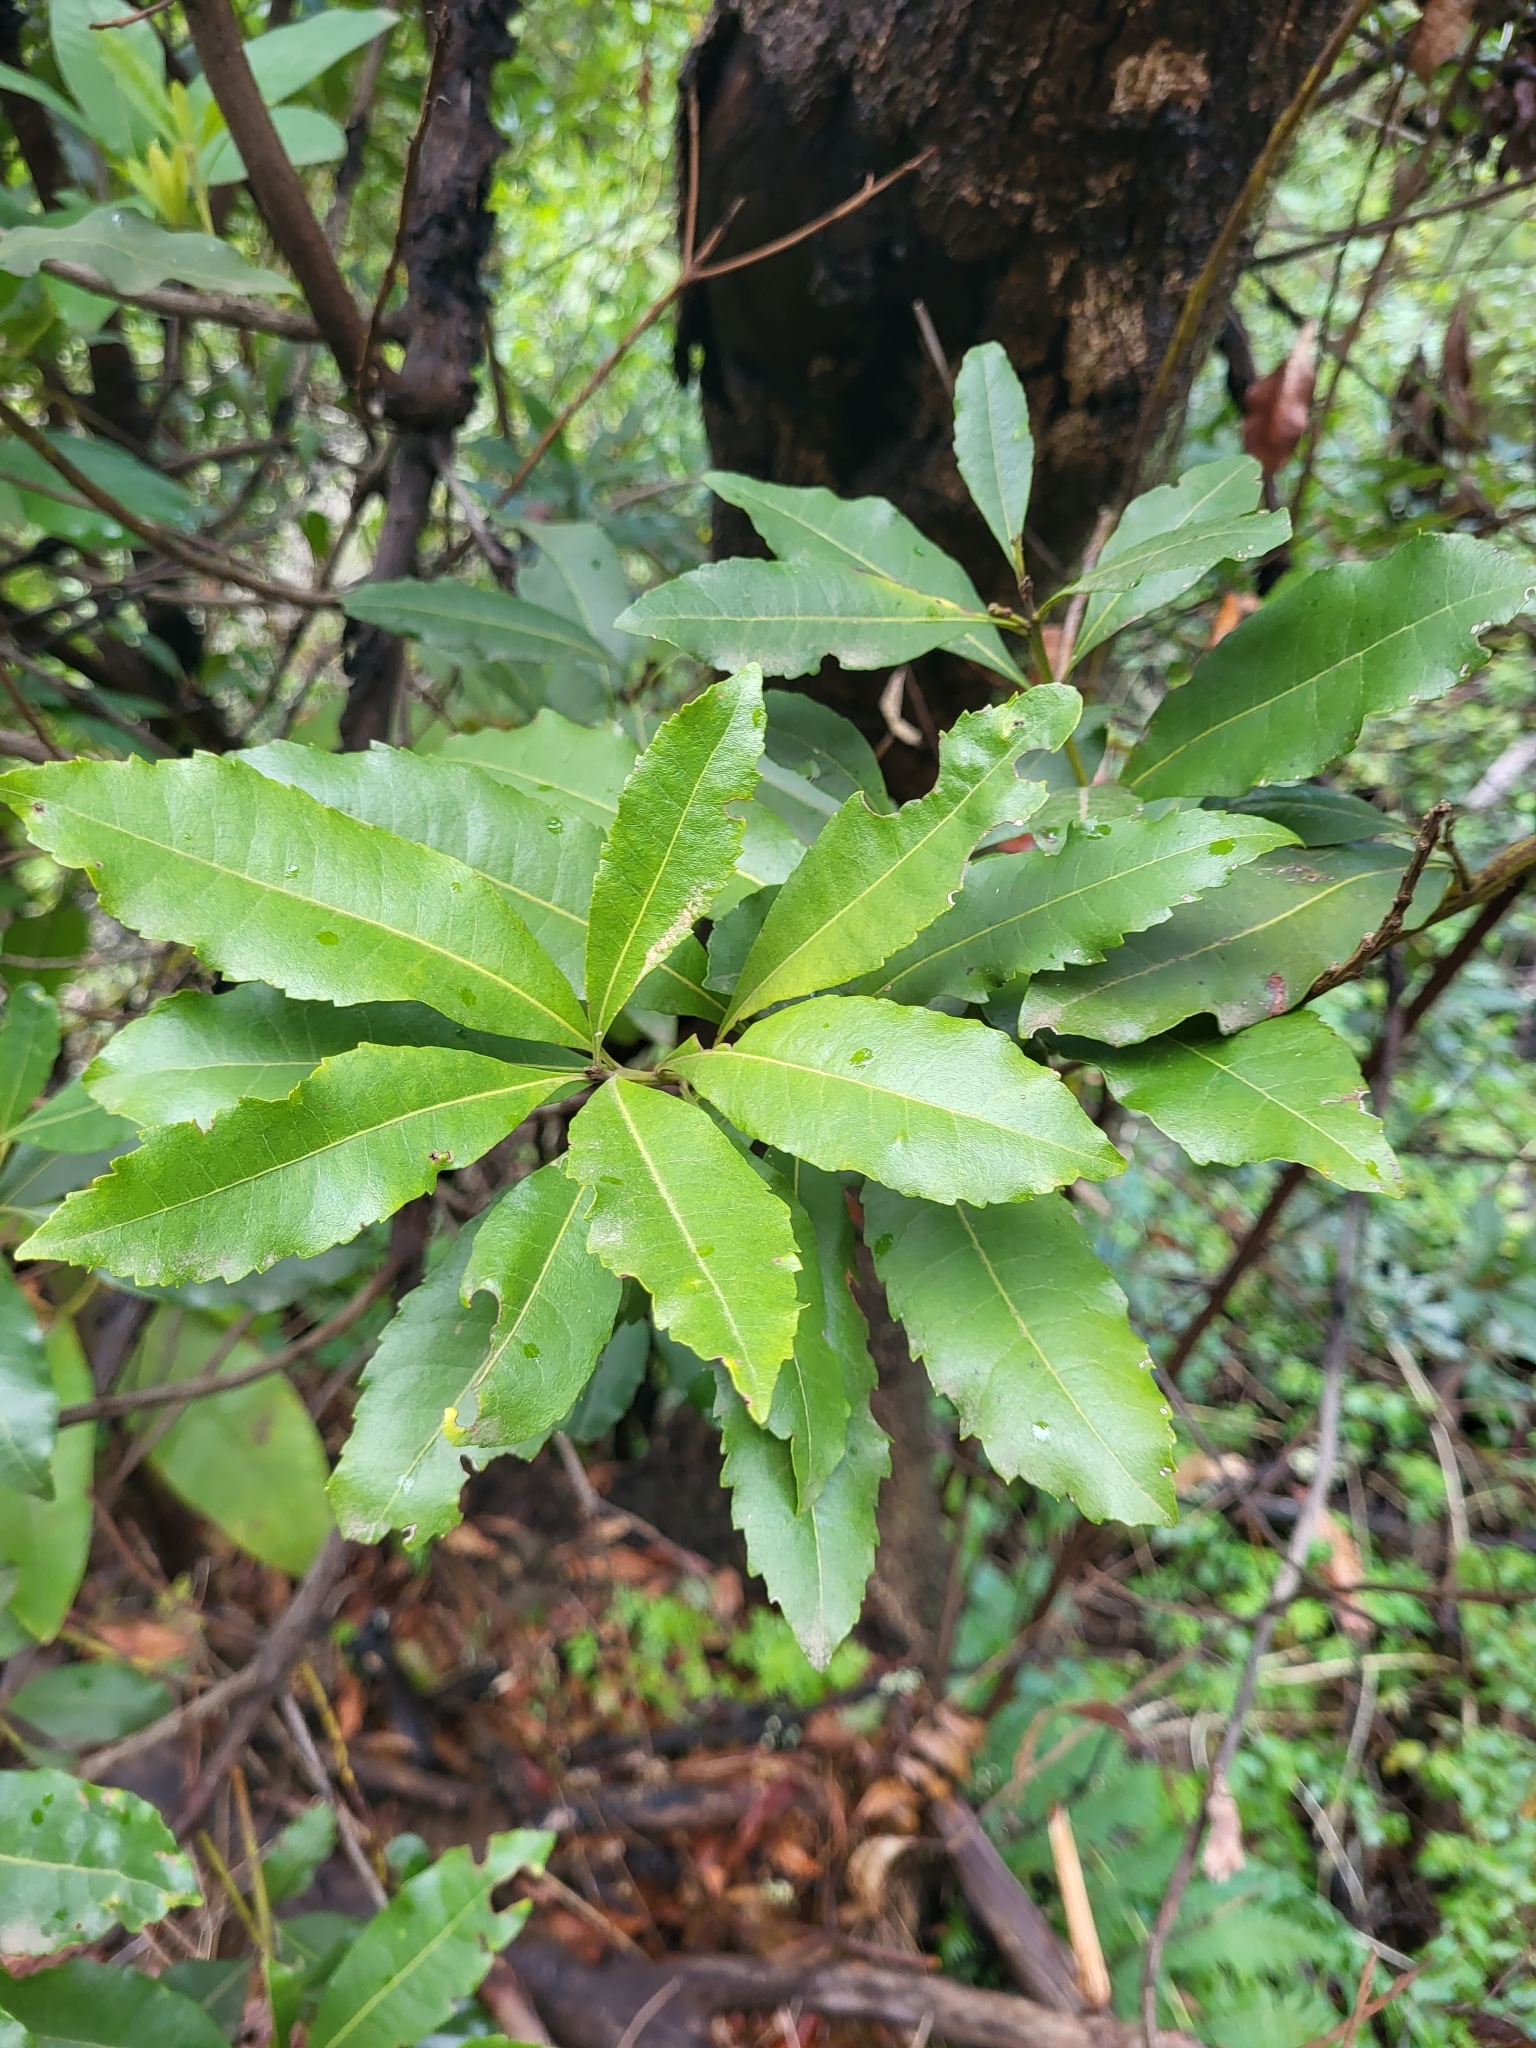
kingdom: Plantae
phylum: Tracheophyta
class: Magnoliopsida
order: Fagales
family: Myricaceae
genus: Morella
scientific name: Morella faya
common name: Firetree
